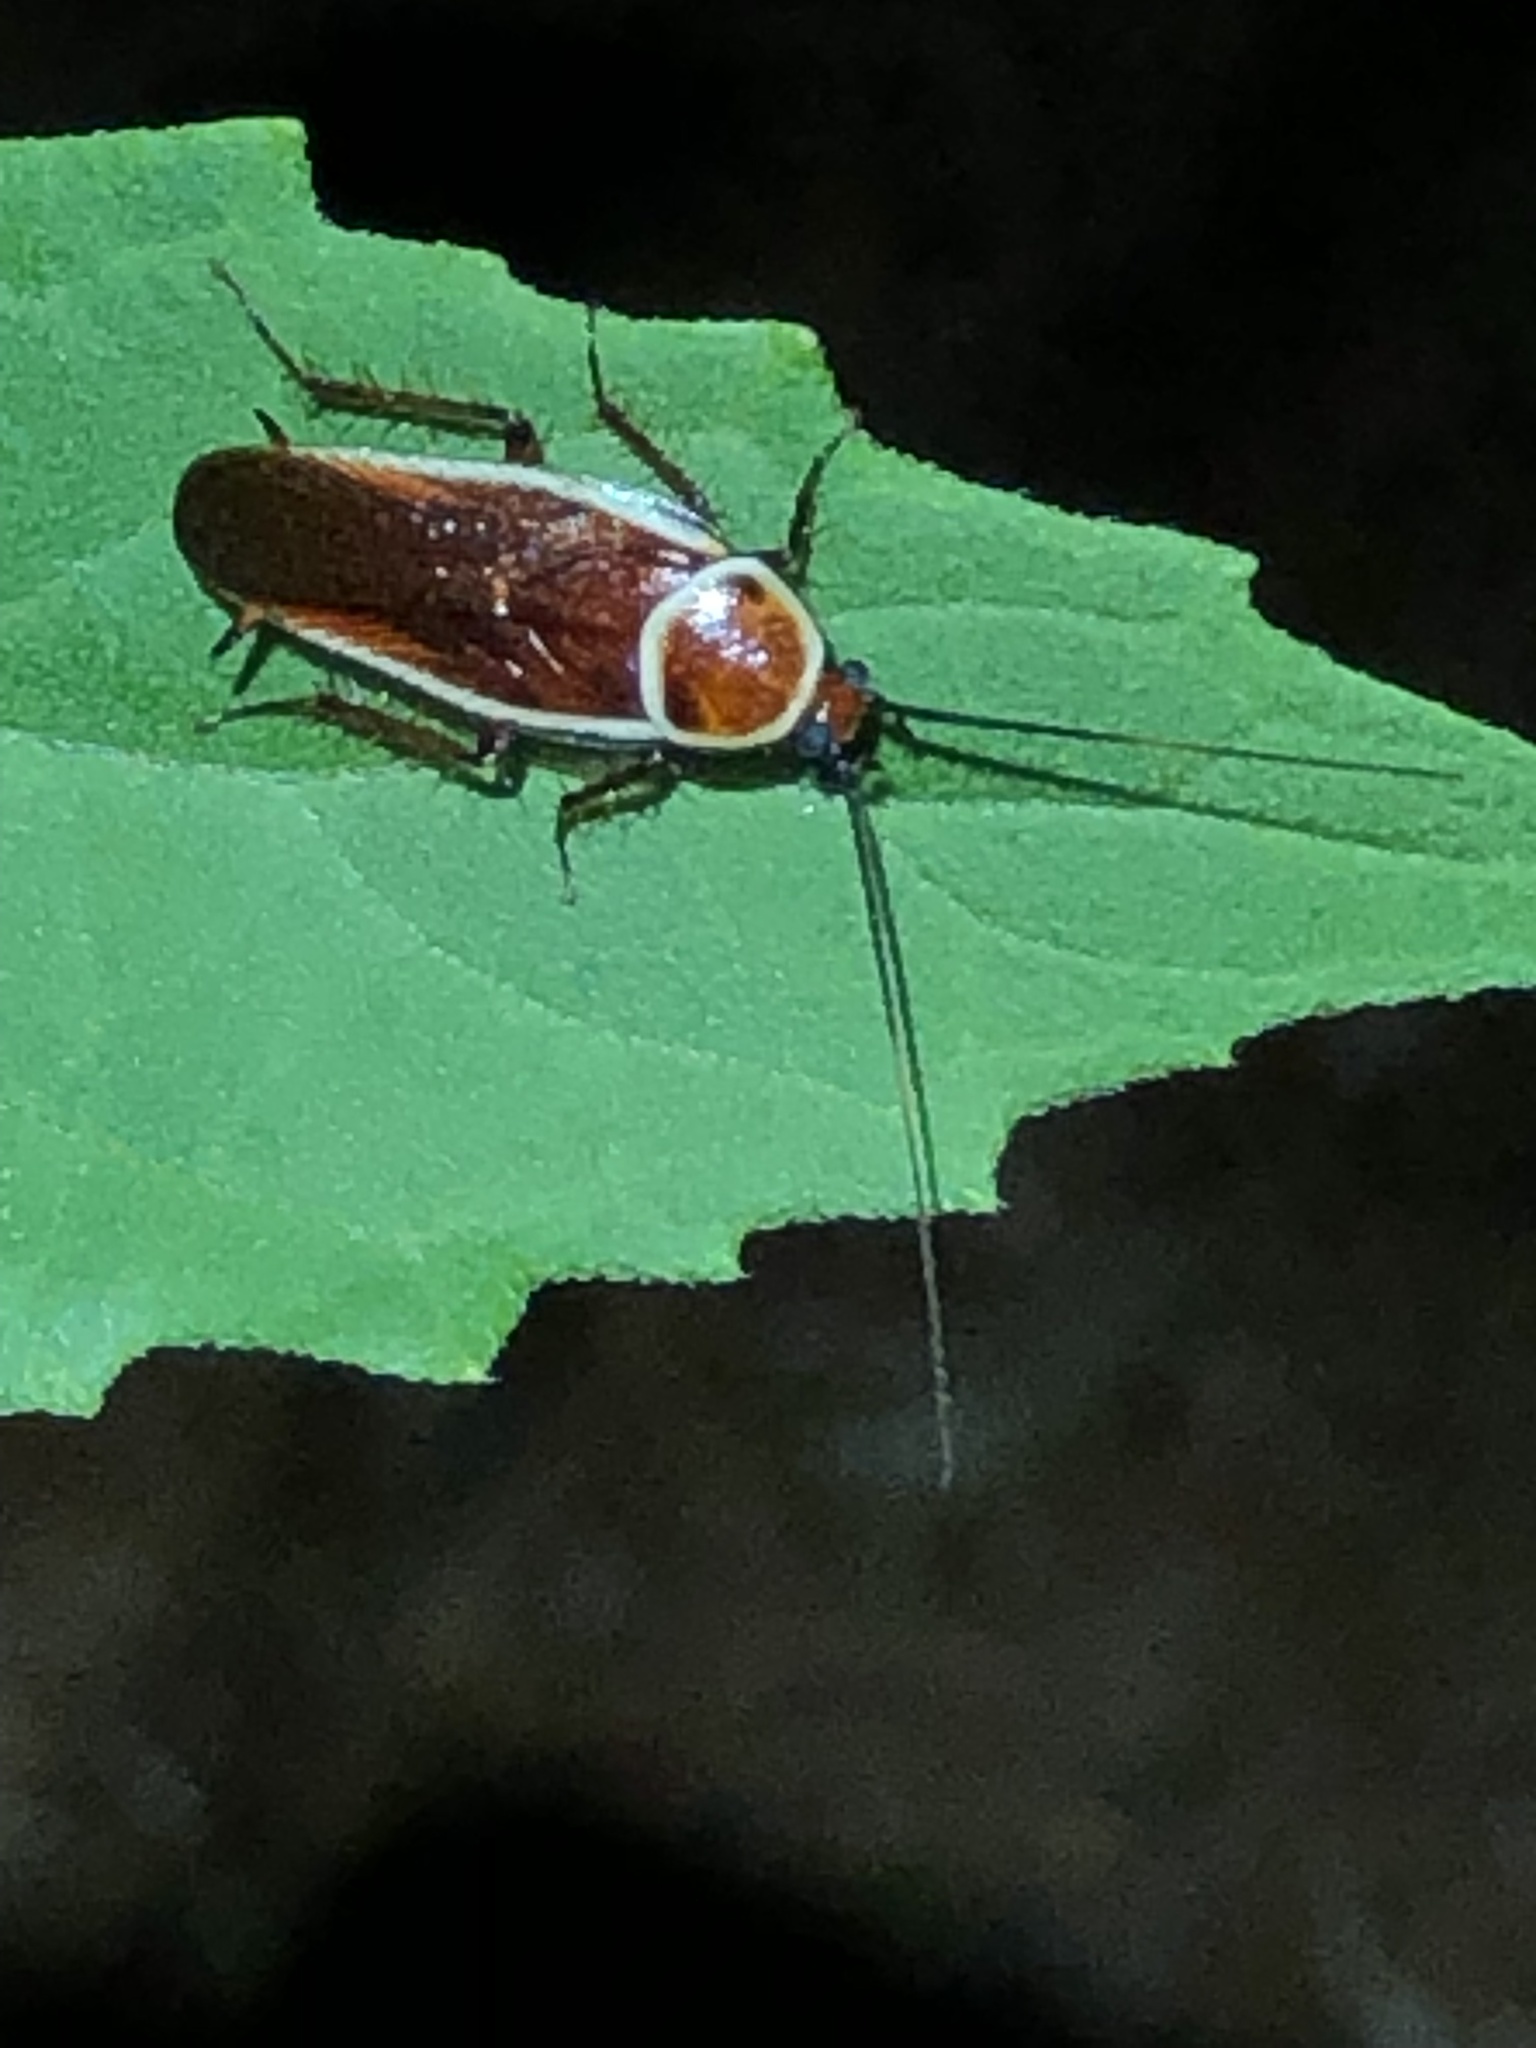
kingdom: Animalia
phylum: Arthropoda
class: Insecta
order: Blattodea
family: Ectobiidae
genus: Pseudomops
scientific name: Pseudomops septentrionalis
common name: Pale-bordered field cockroach
